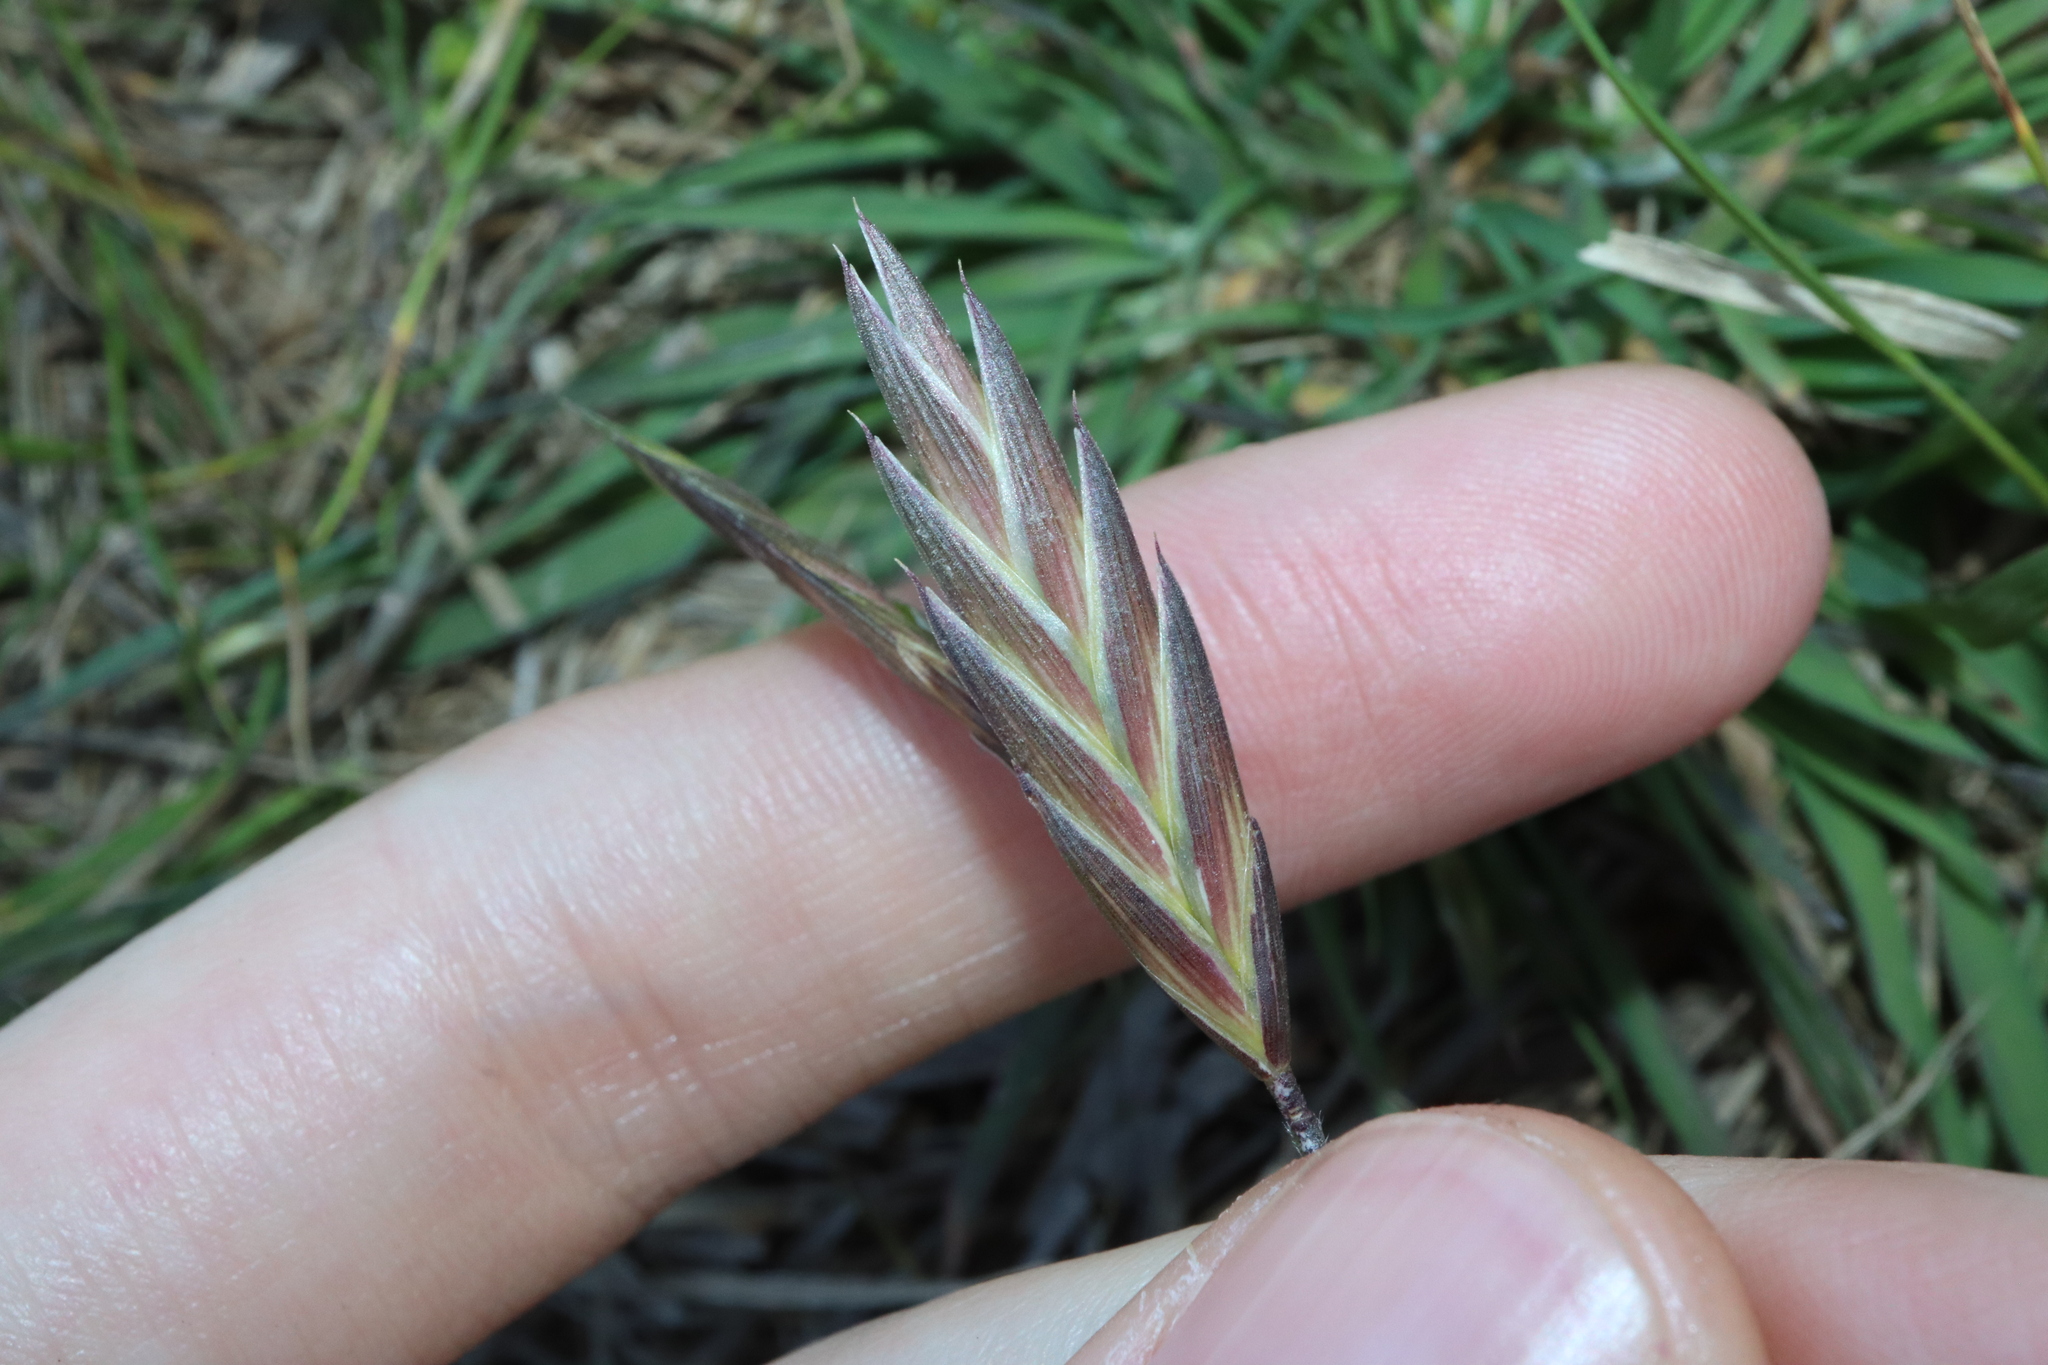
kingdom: Plantae
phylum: Tracheophyta
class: Liliopsida
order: Poales
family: Poaceae
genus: Bromus
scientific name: Bromus catharticus
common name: Rescuegrass
